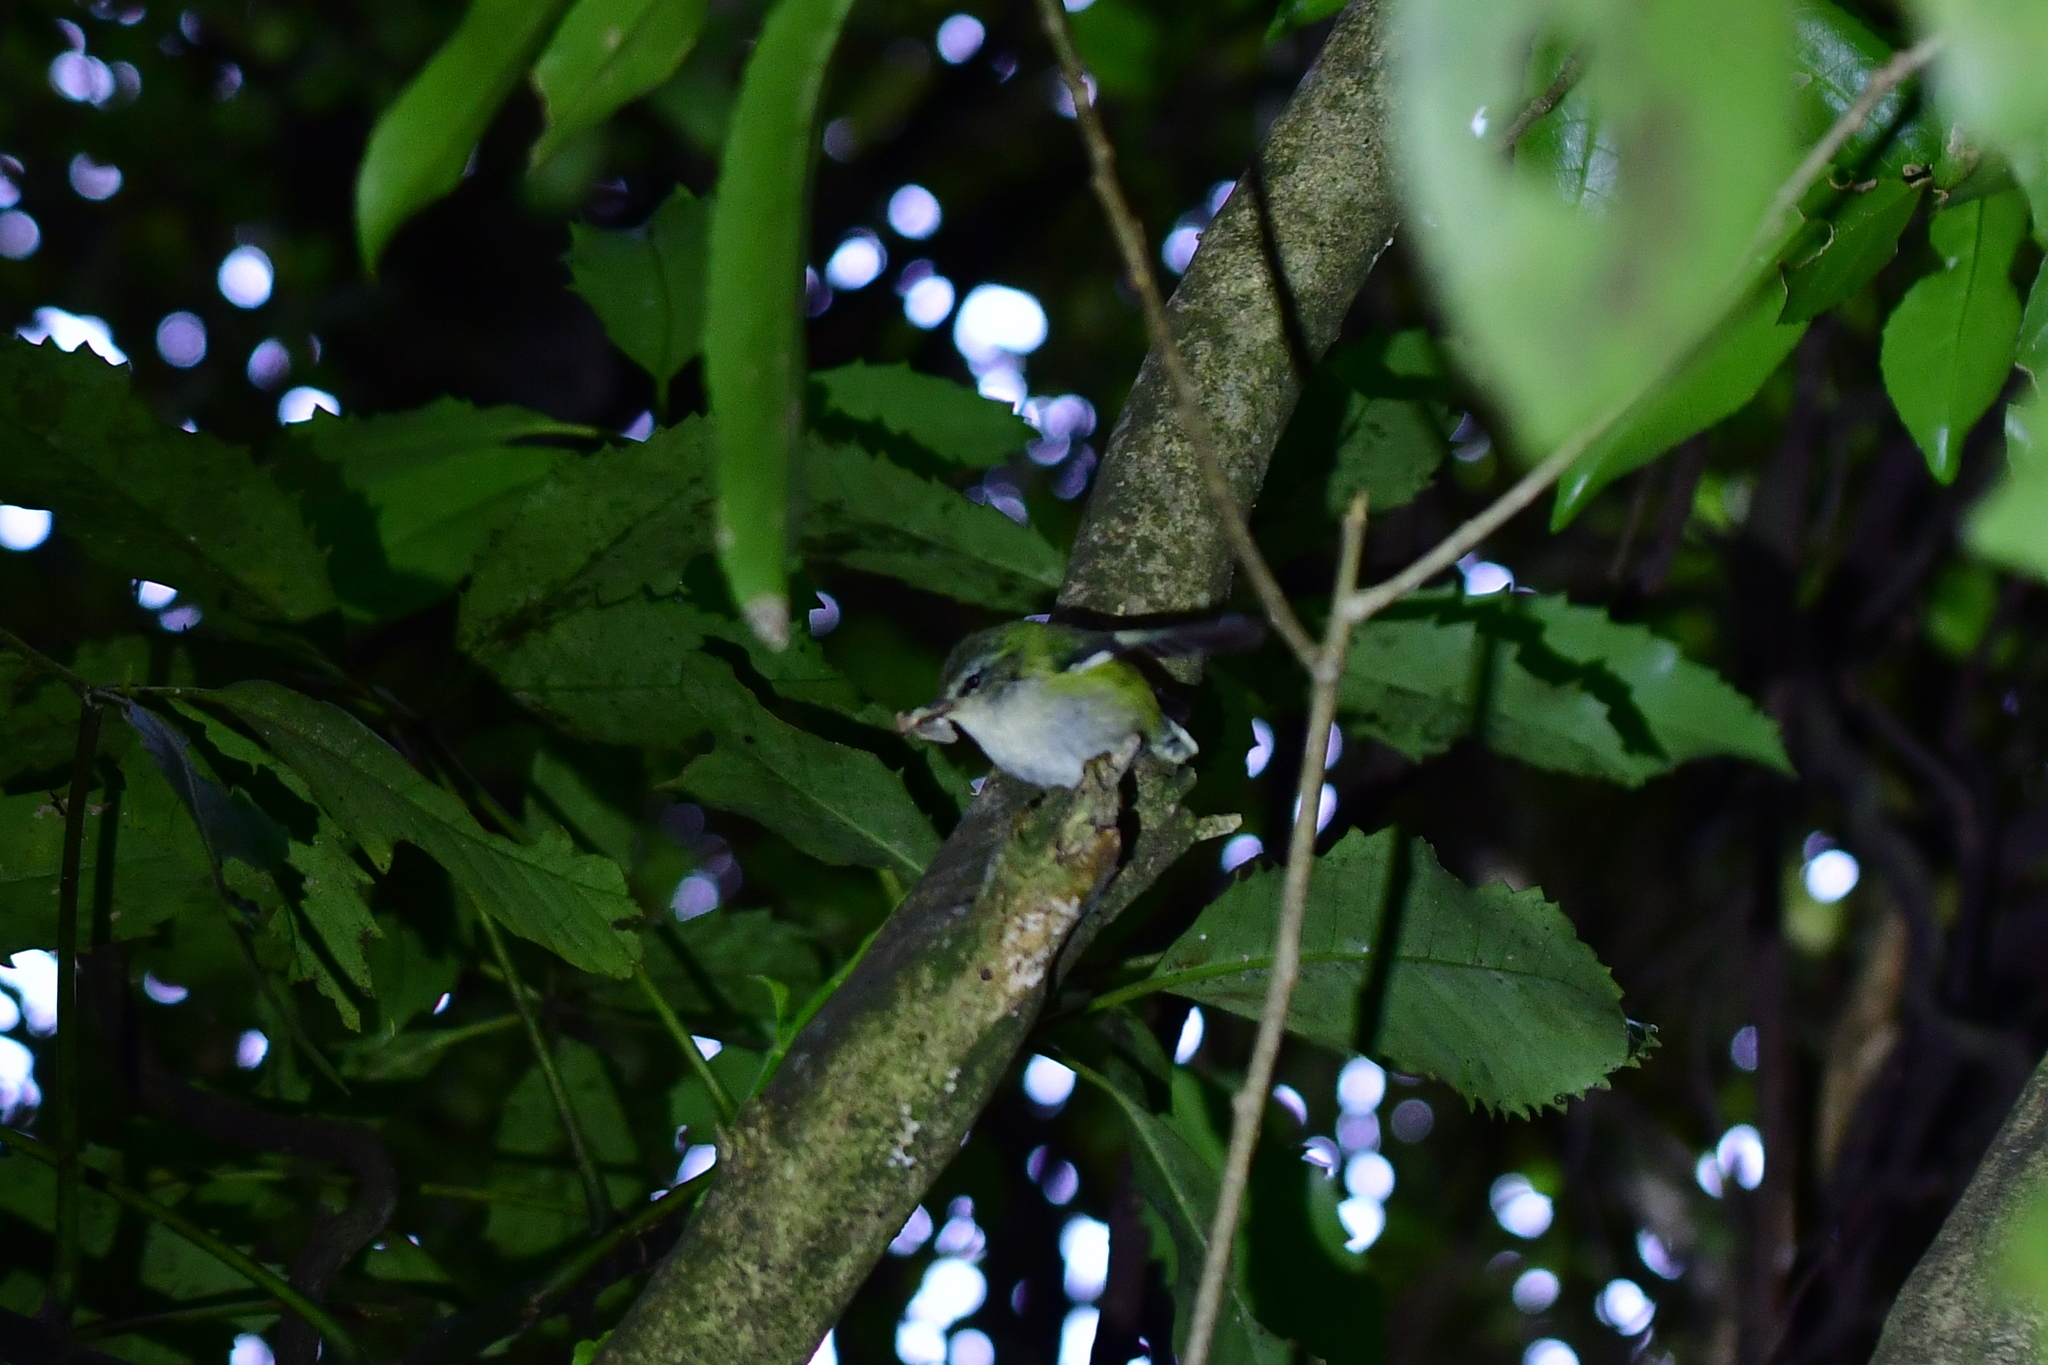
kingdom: Animalia
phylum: Chordata
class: Aves
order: Passeriformes
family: Acanthisittidae
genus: Acanthisitta
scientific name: Acanthisitta chloris
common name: Rifleman
